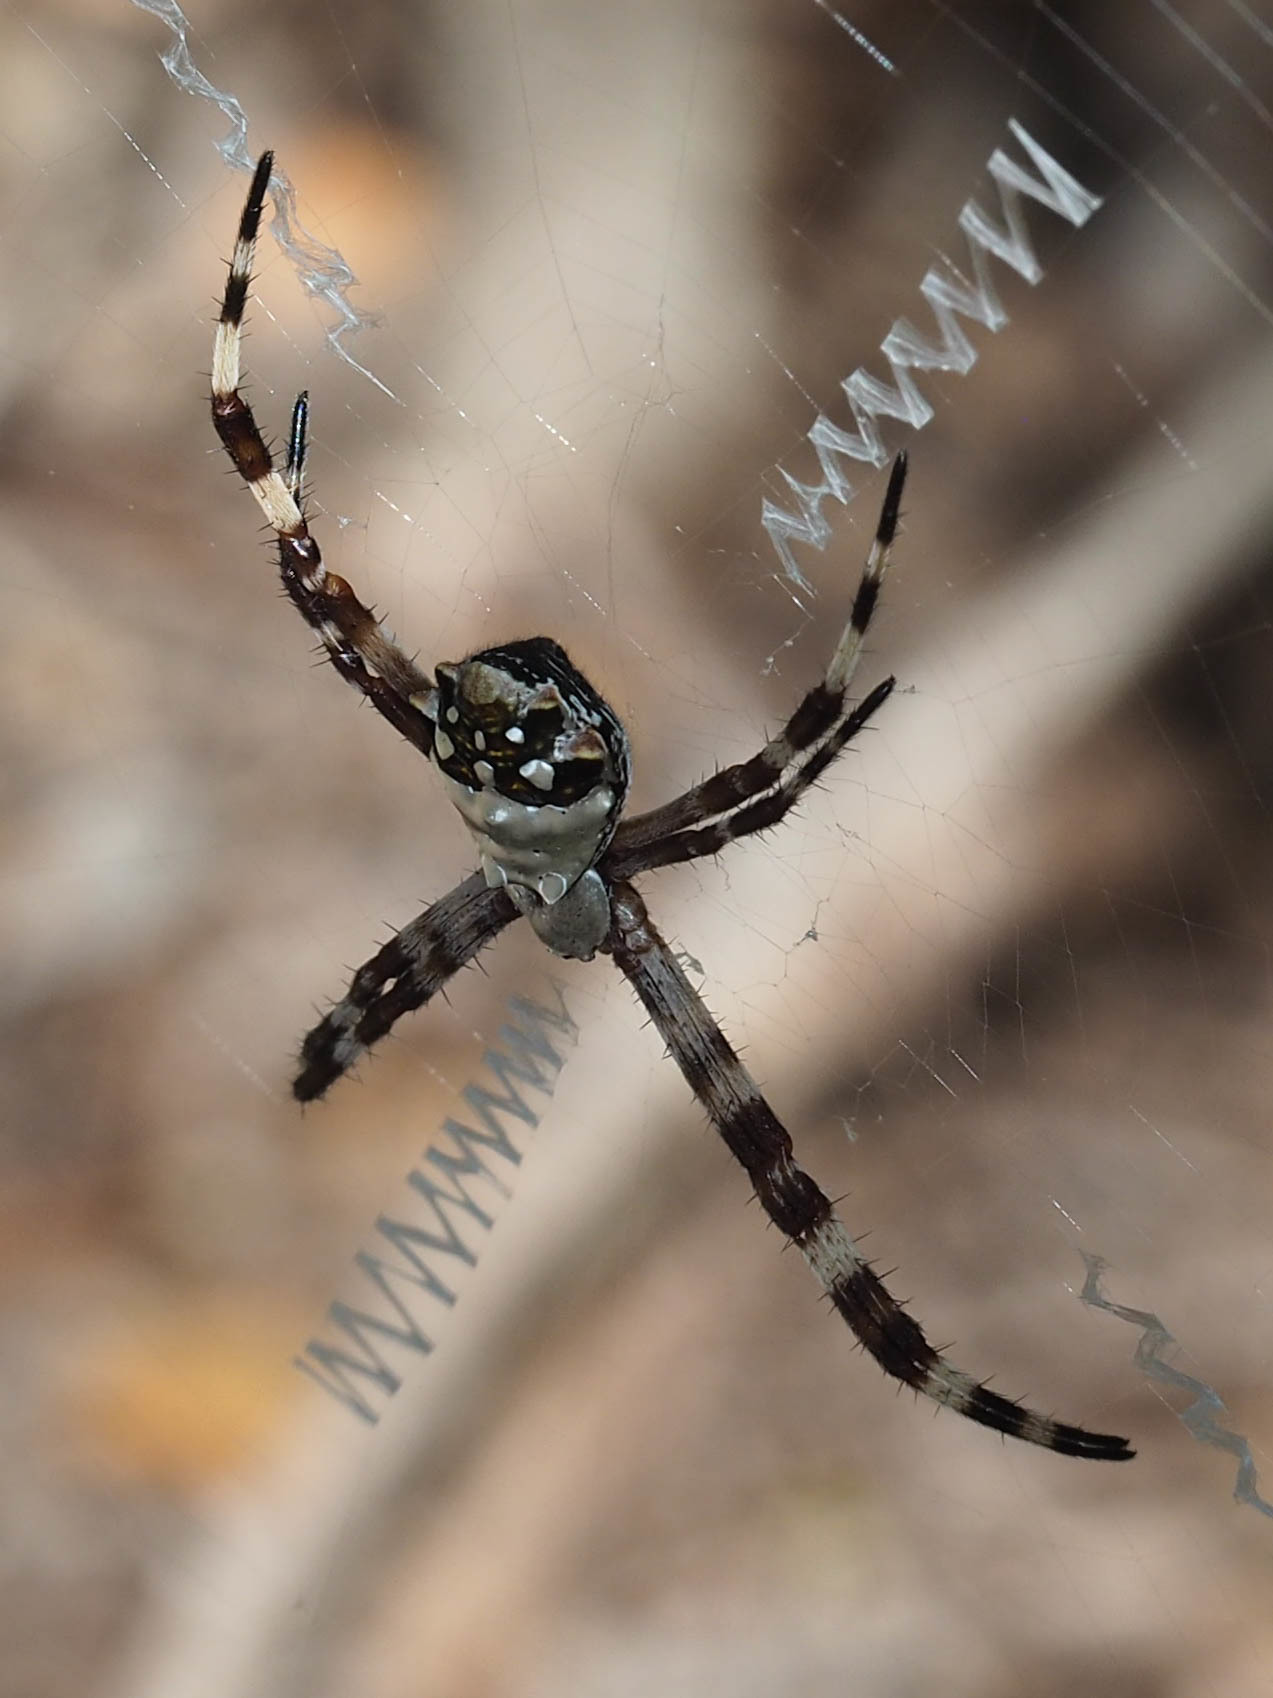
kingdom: Animalia
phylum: Arthropoda
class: Arachnida
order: Araneae
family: Araneidae
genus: Argiope
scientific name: Argiope argentata
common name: Orb weavers
